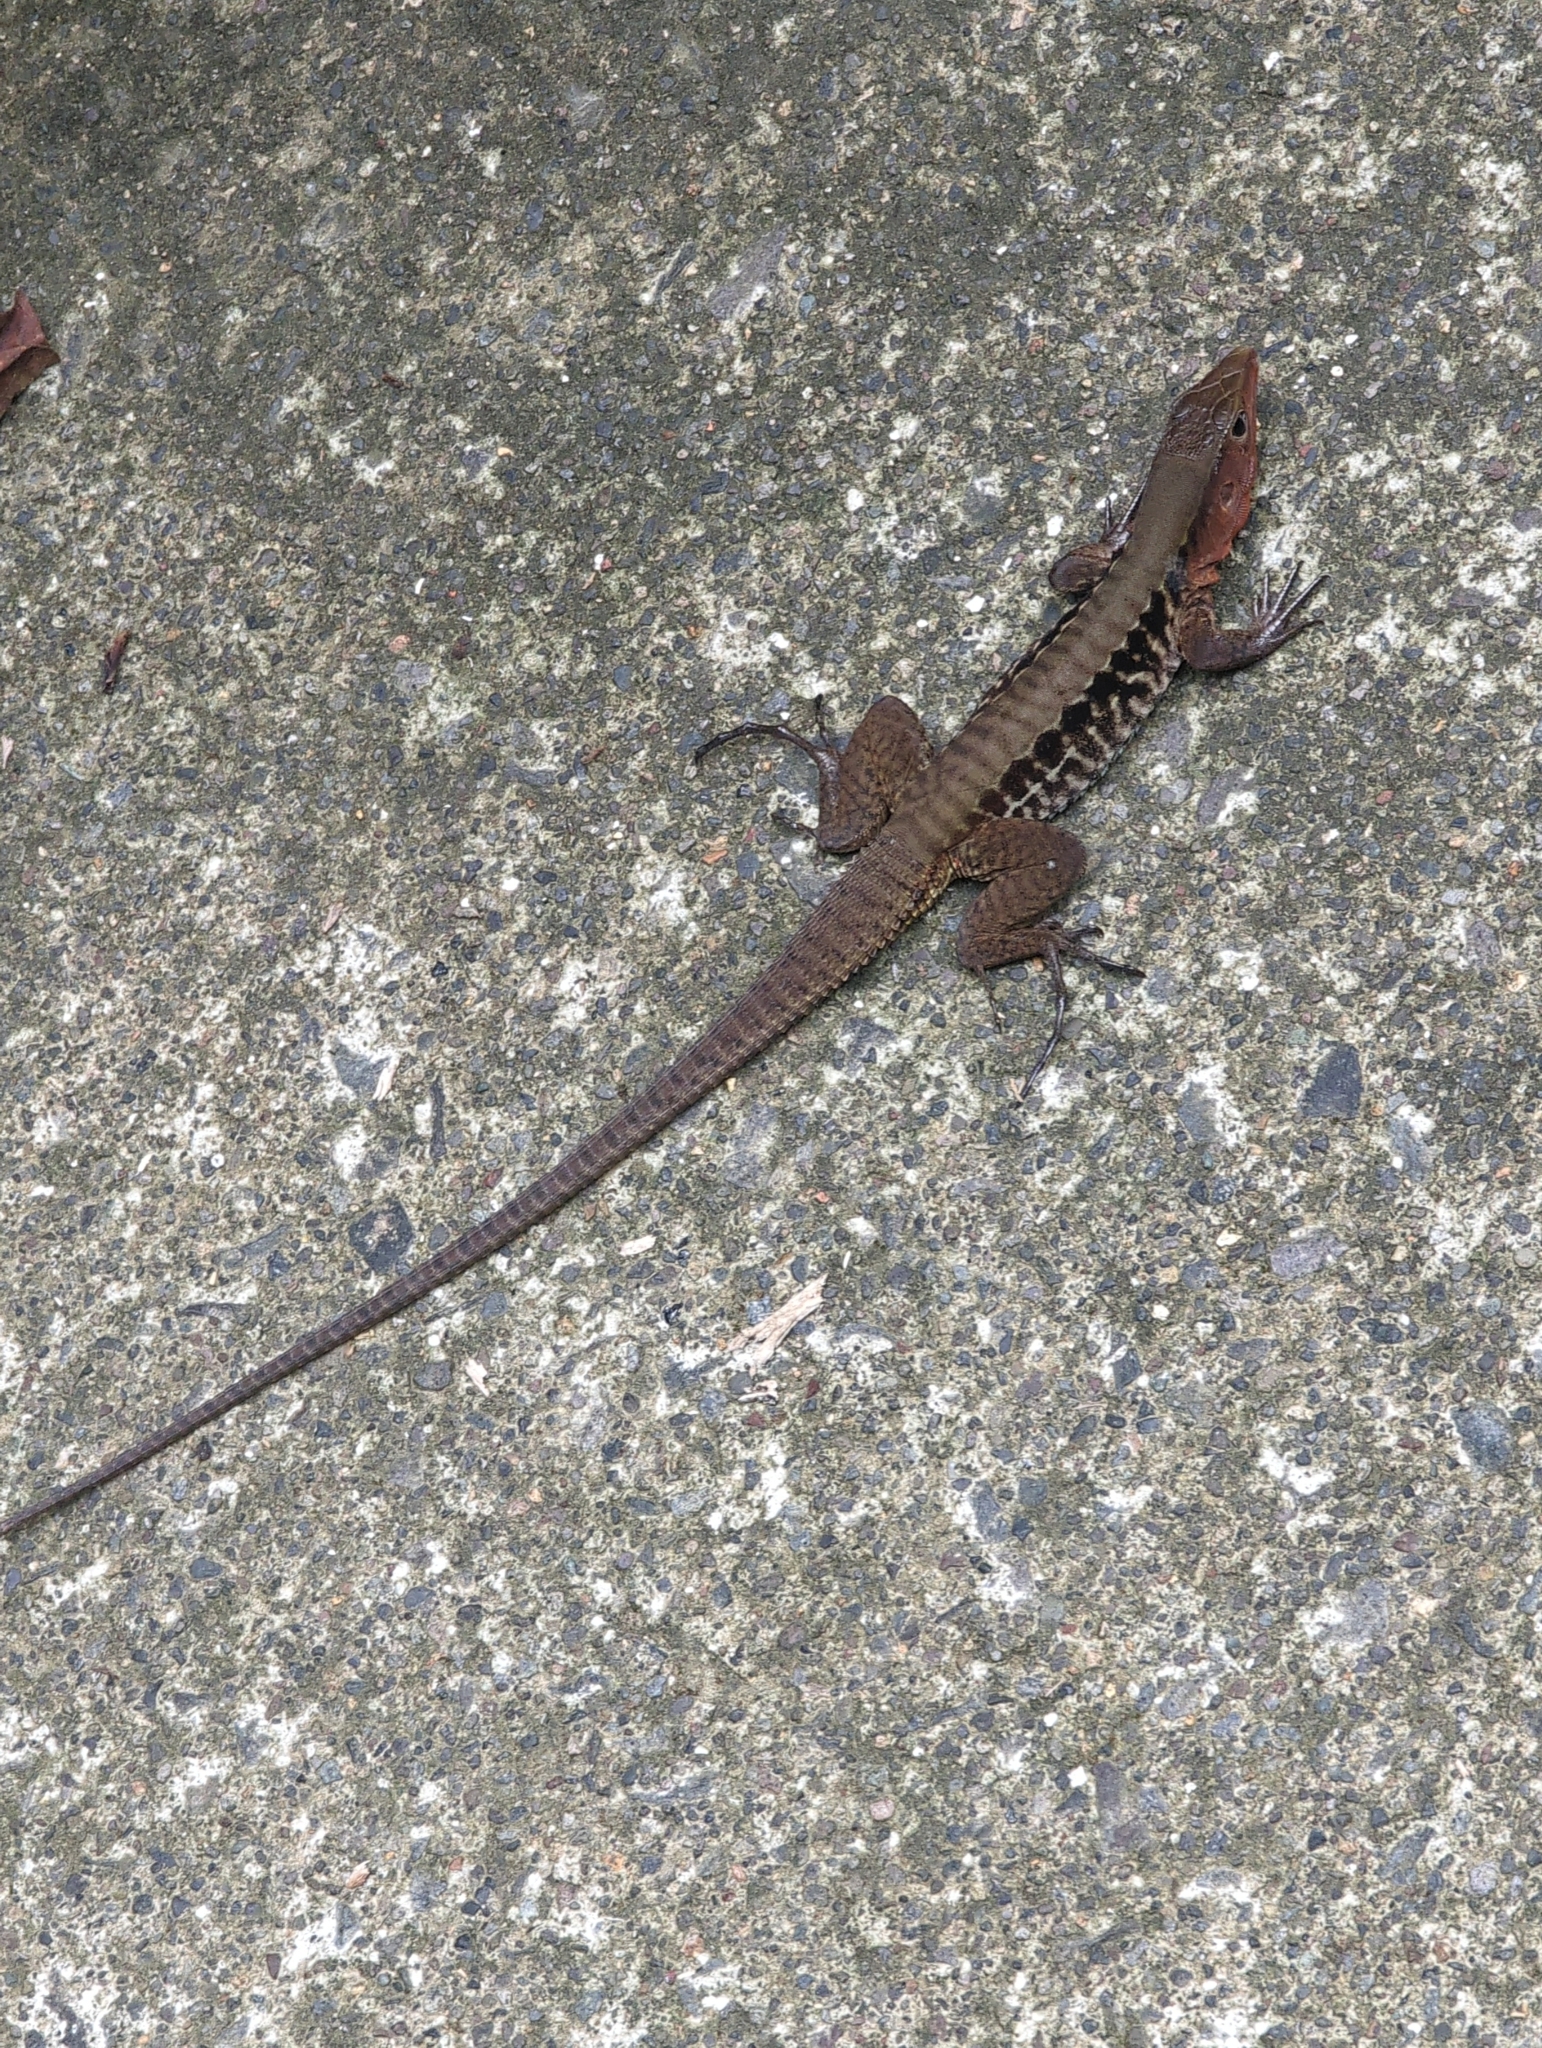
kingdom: Animalia
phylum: Chordata
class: Squamata
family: Teiidae
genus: Holcosus
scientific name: Holcosus leptophrys
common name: Delicate ameiva
